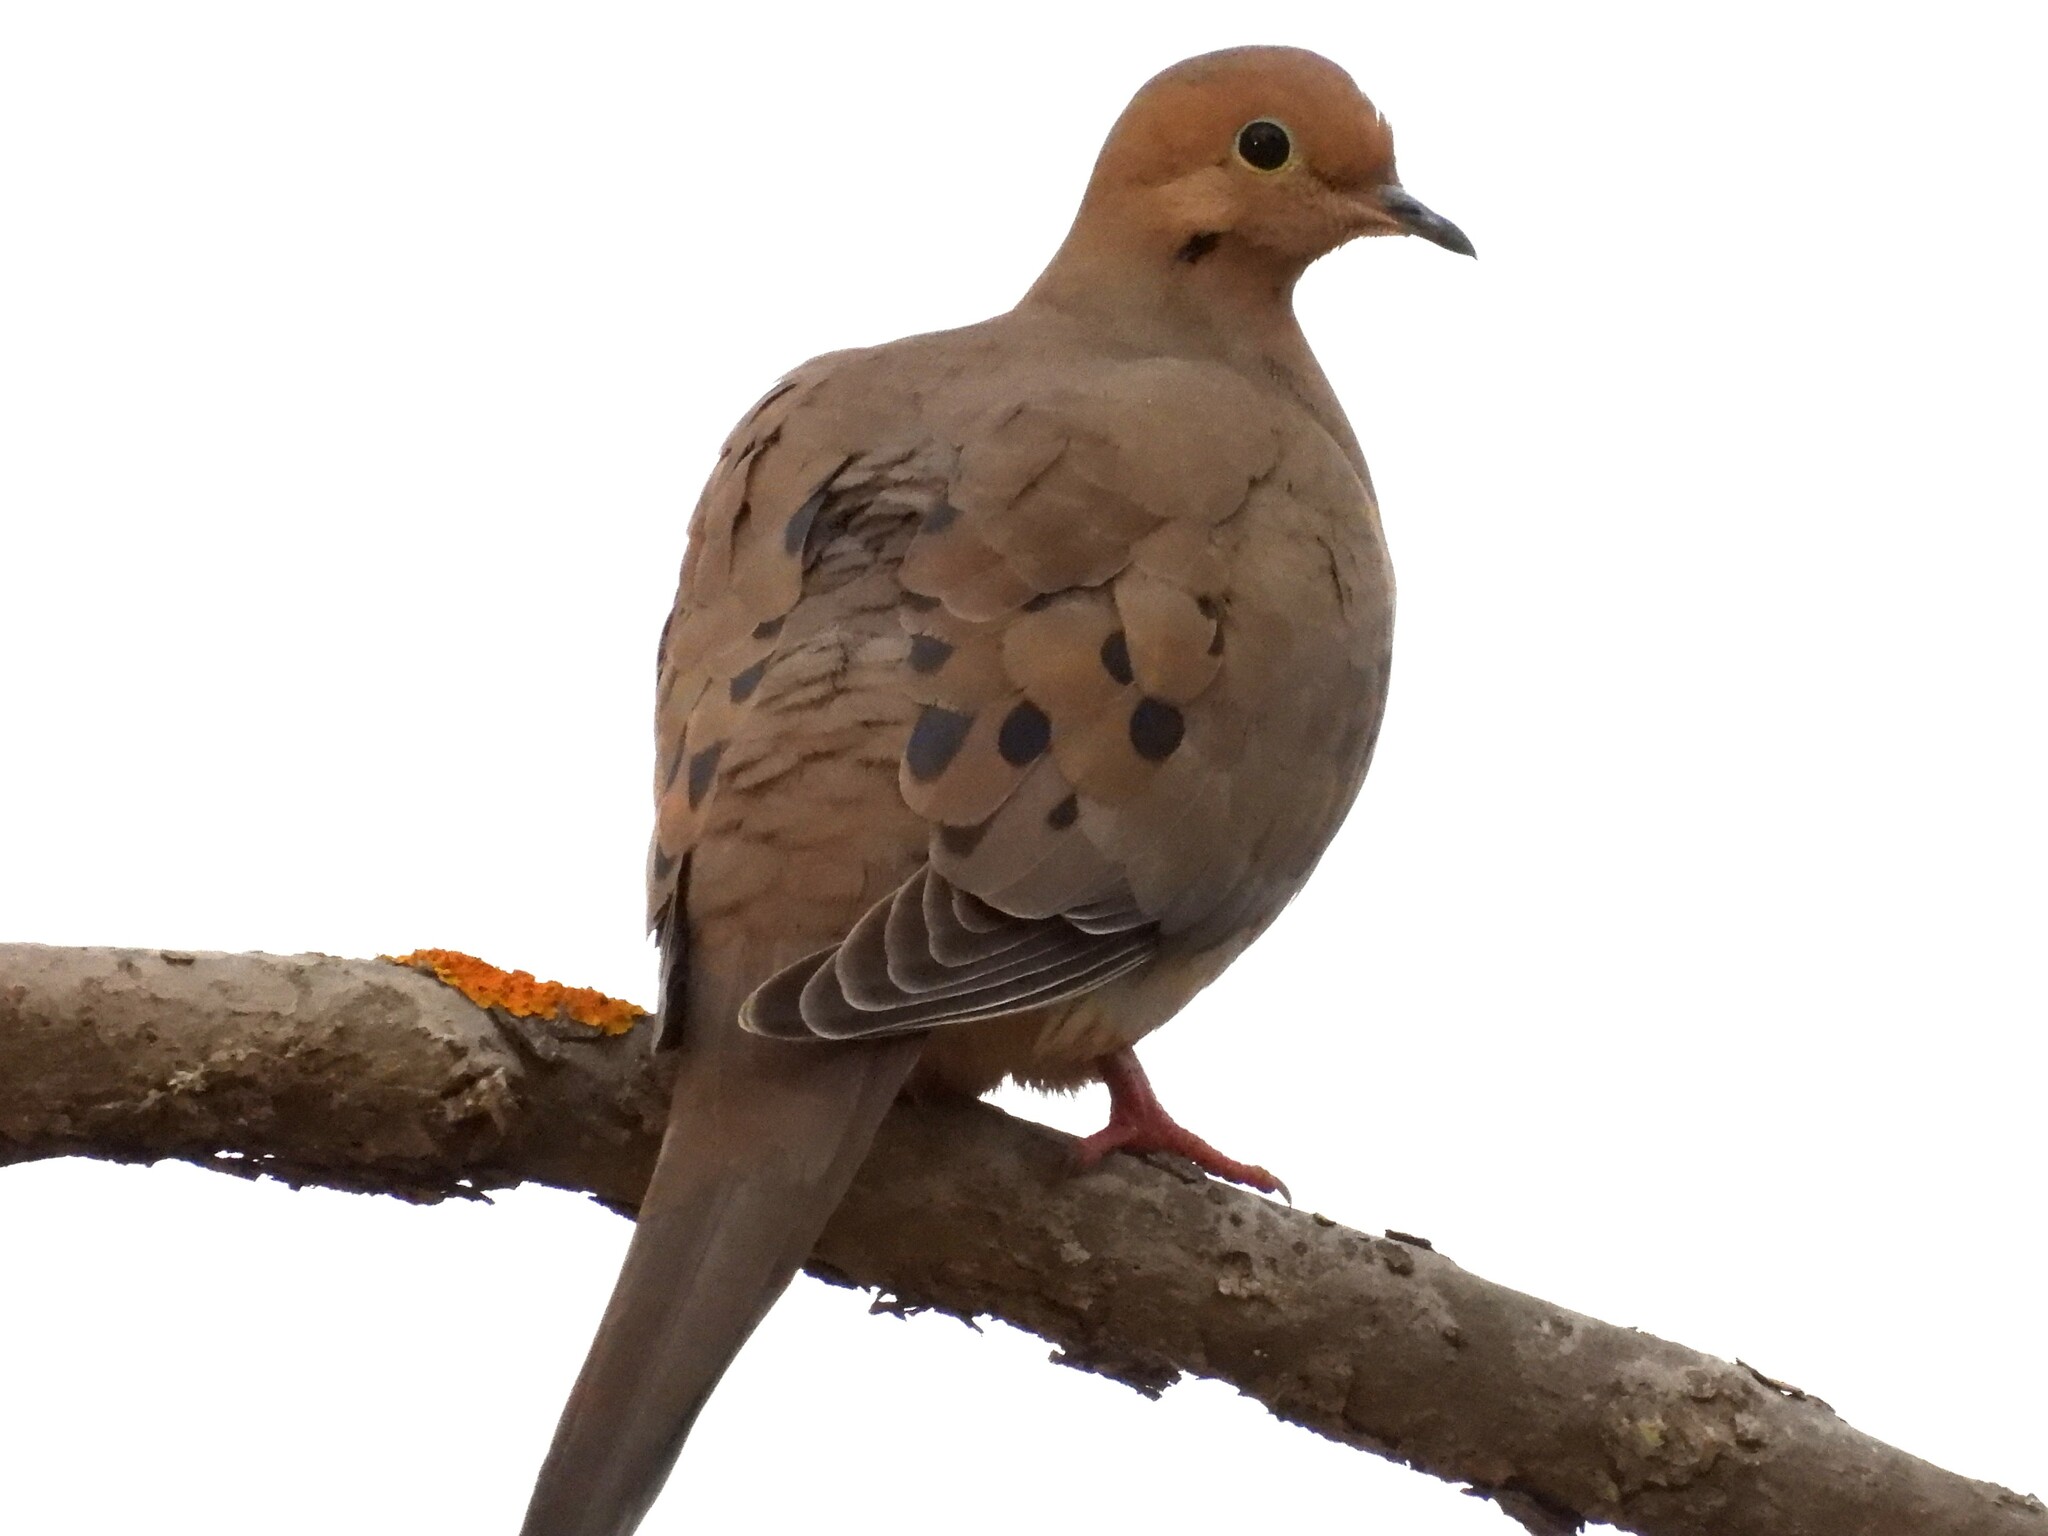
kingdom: Animalia
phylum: Chordata
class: Aves
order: Columbiformes
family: Columbidae
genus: Zenaida
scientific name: Zenaida macroura
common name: Mourning dove
